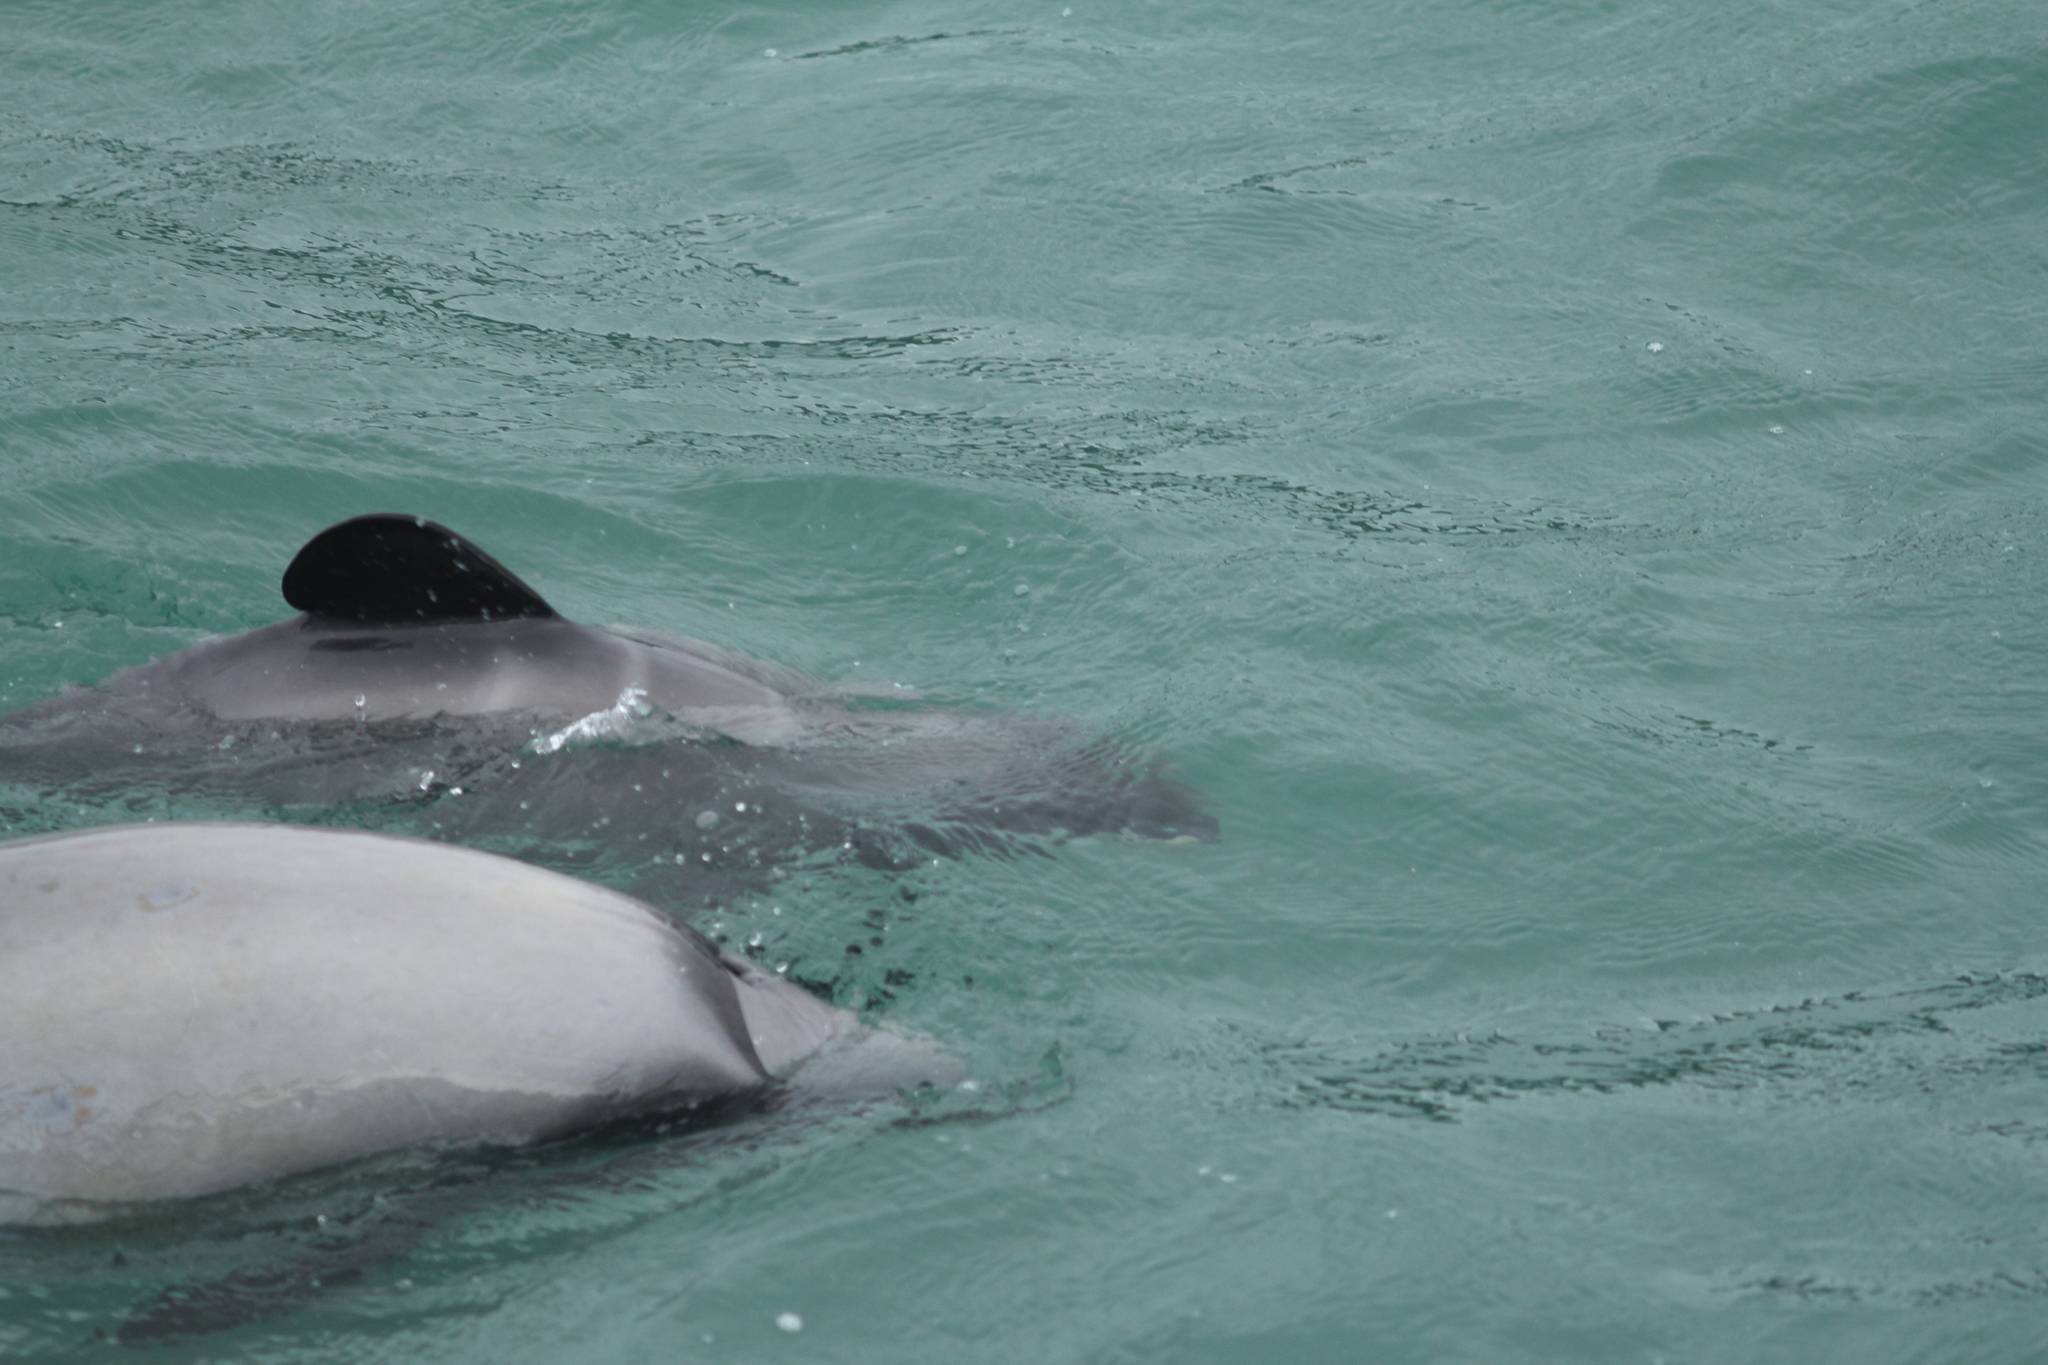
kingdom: Animalia
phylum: Chordata
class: Mammalia
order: Cetacea
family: Delphinidae
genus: Cephalorhynchus
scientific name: Cephalorhynchus hectori
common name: Hector's dolphin
